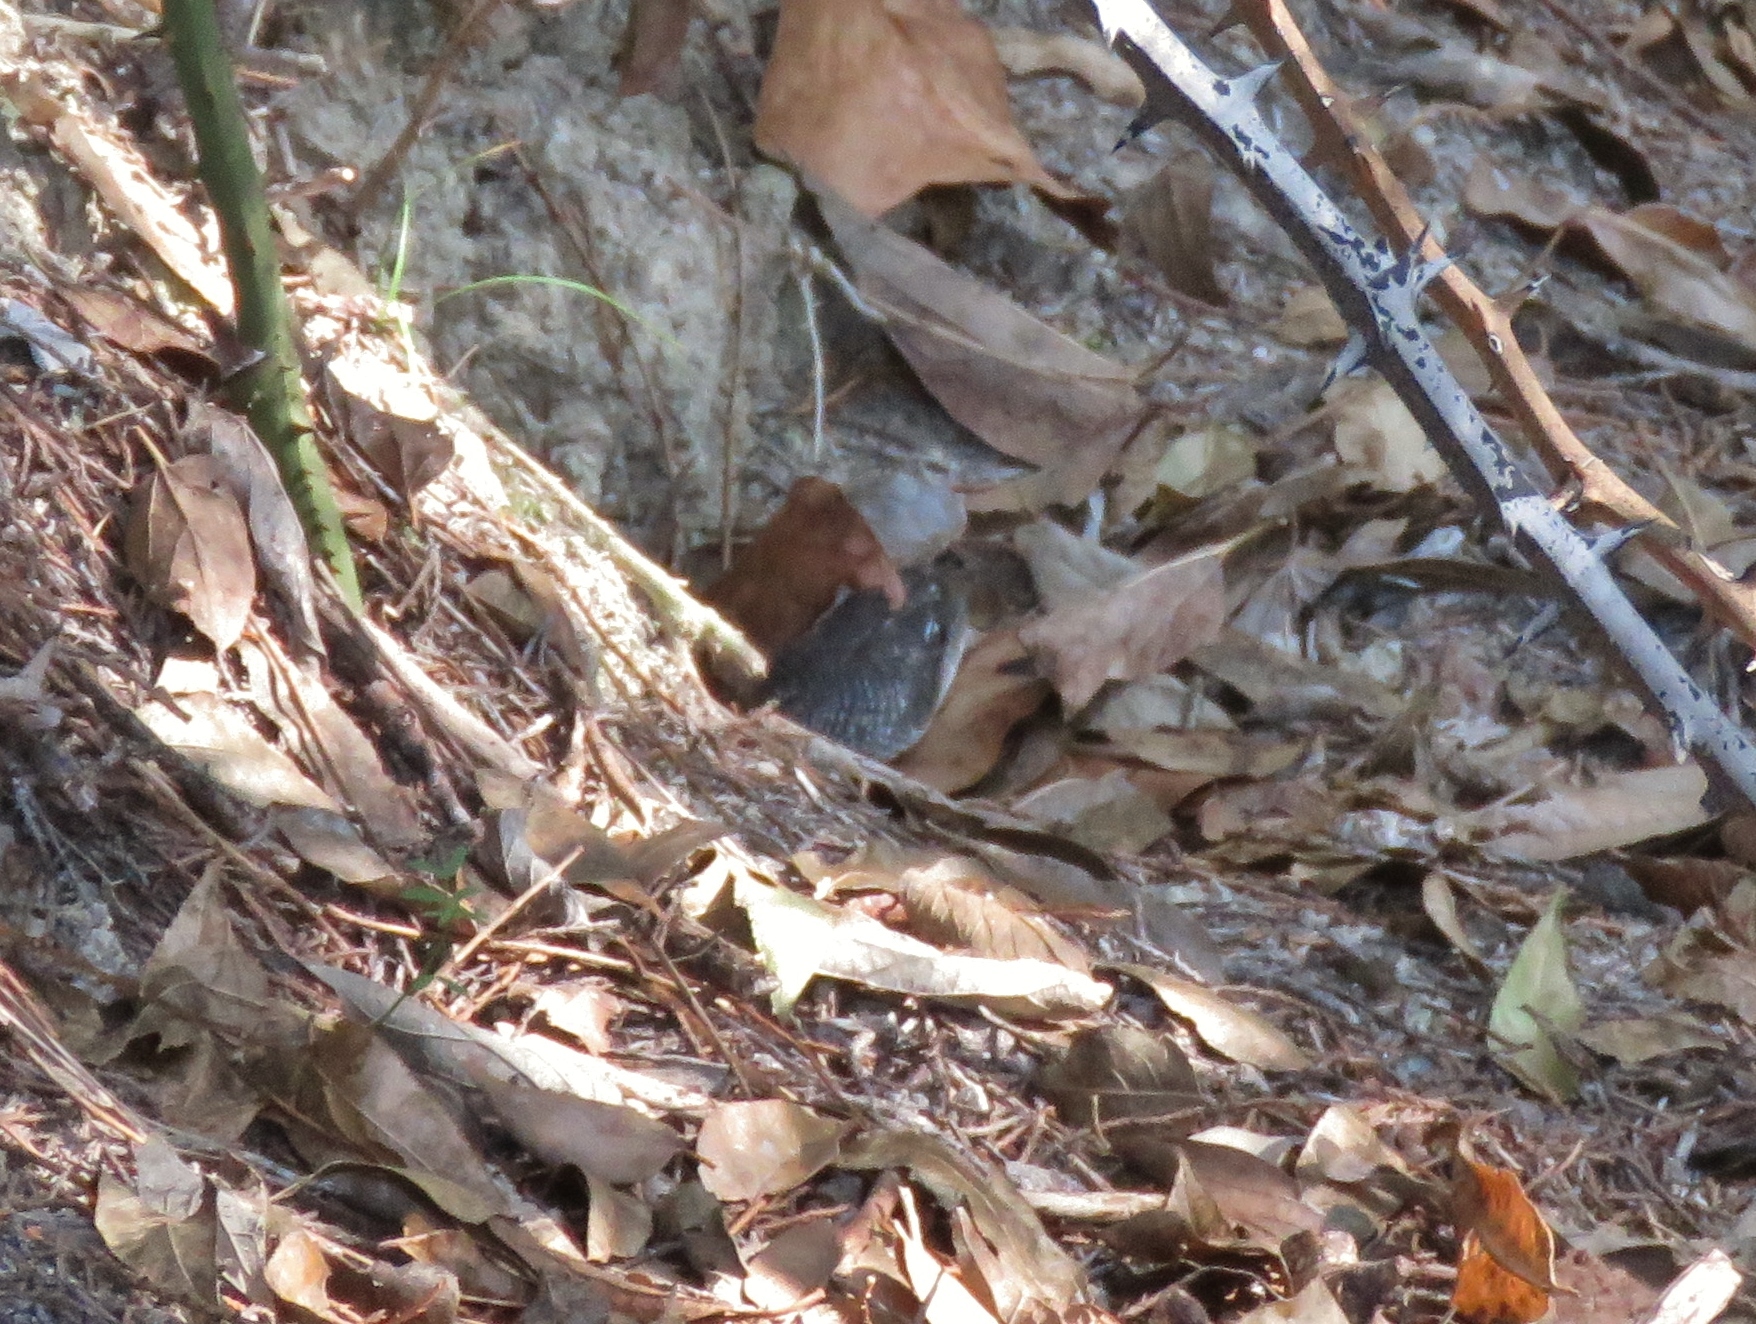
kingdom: Animalia
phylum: Chordata
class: Squamata
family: Colubridae
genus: Pantherophis
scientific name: Pantherophis obsoletus
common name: Black rat snake
